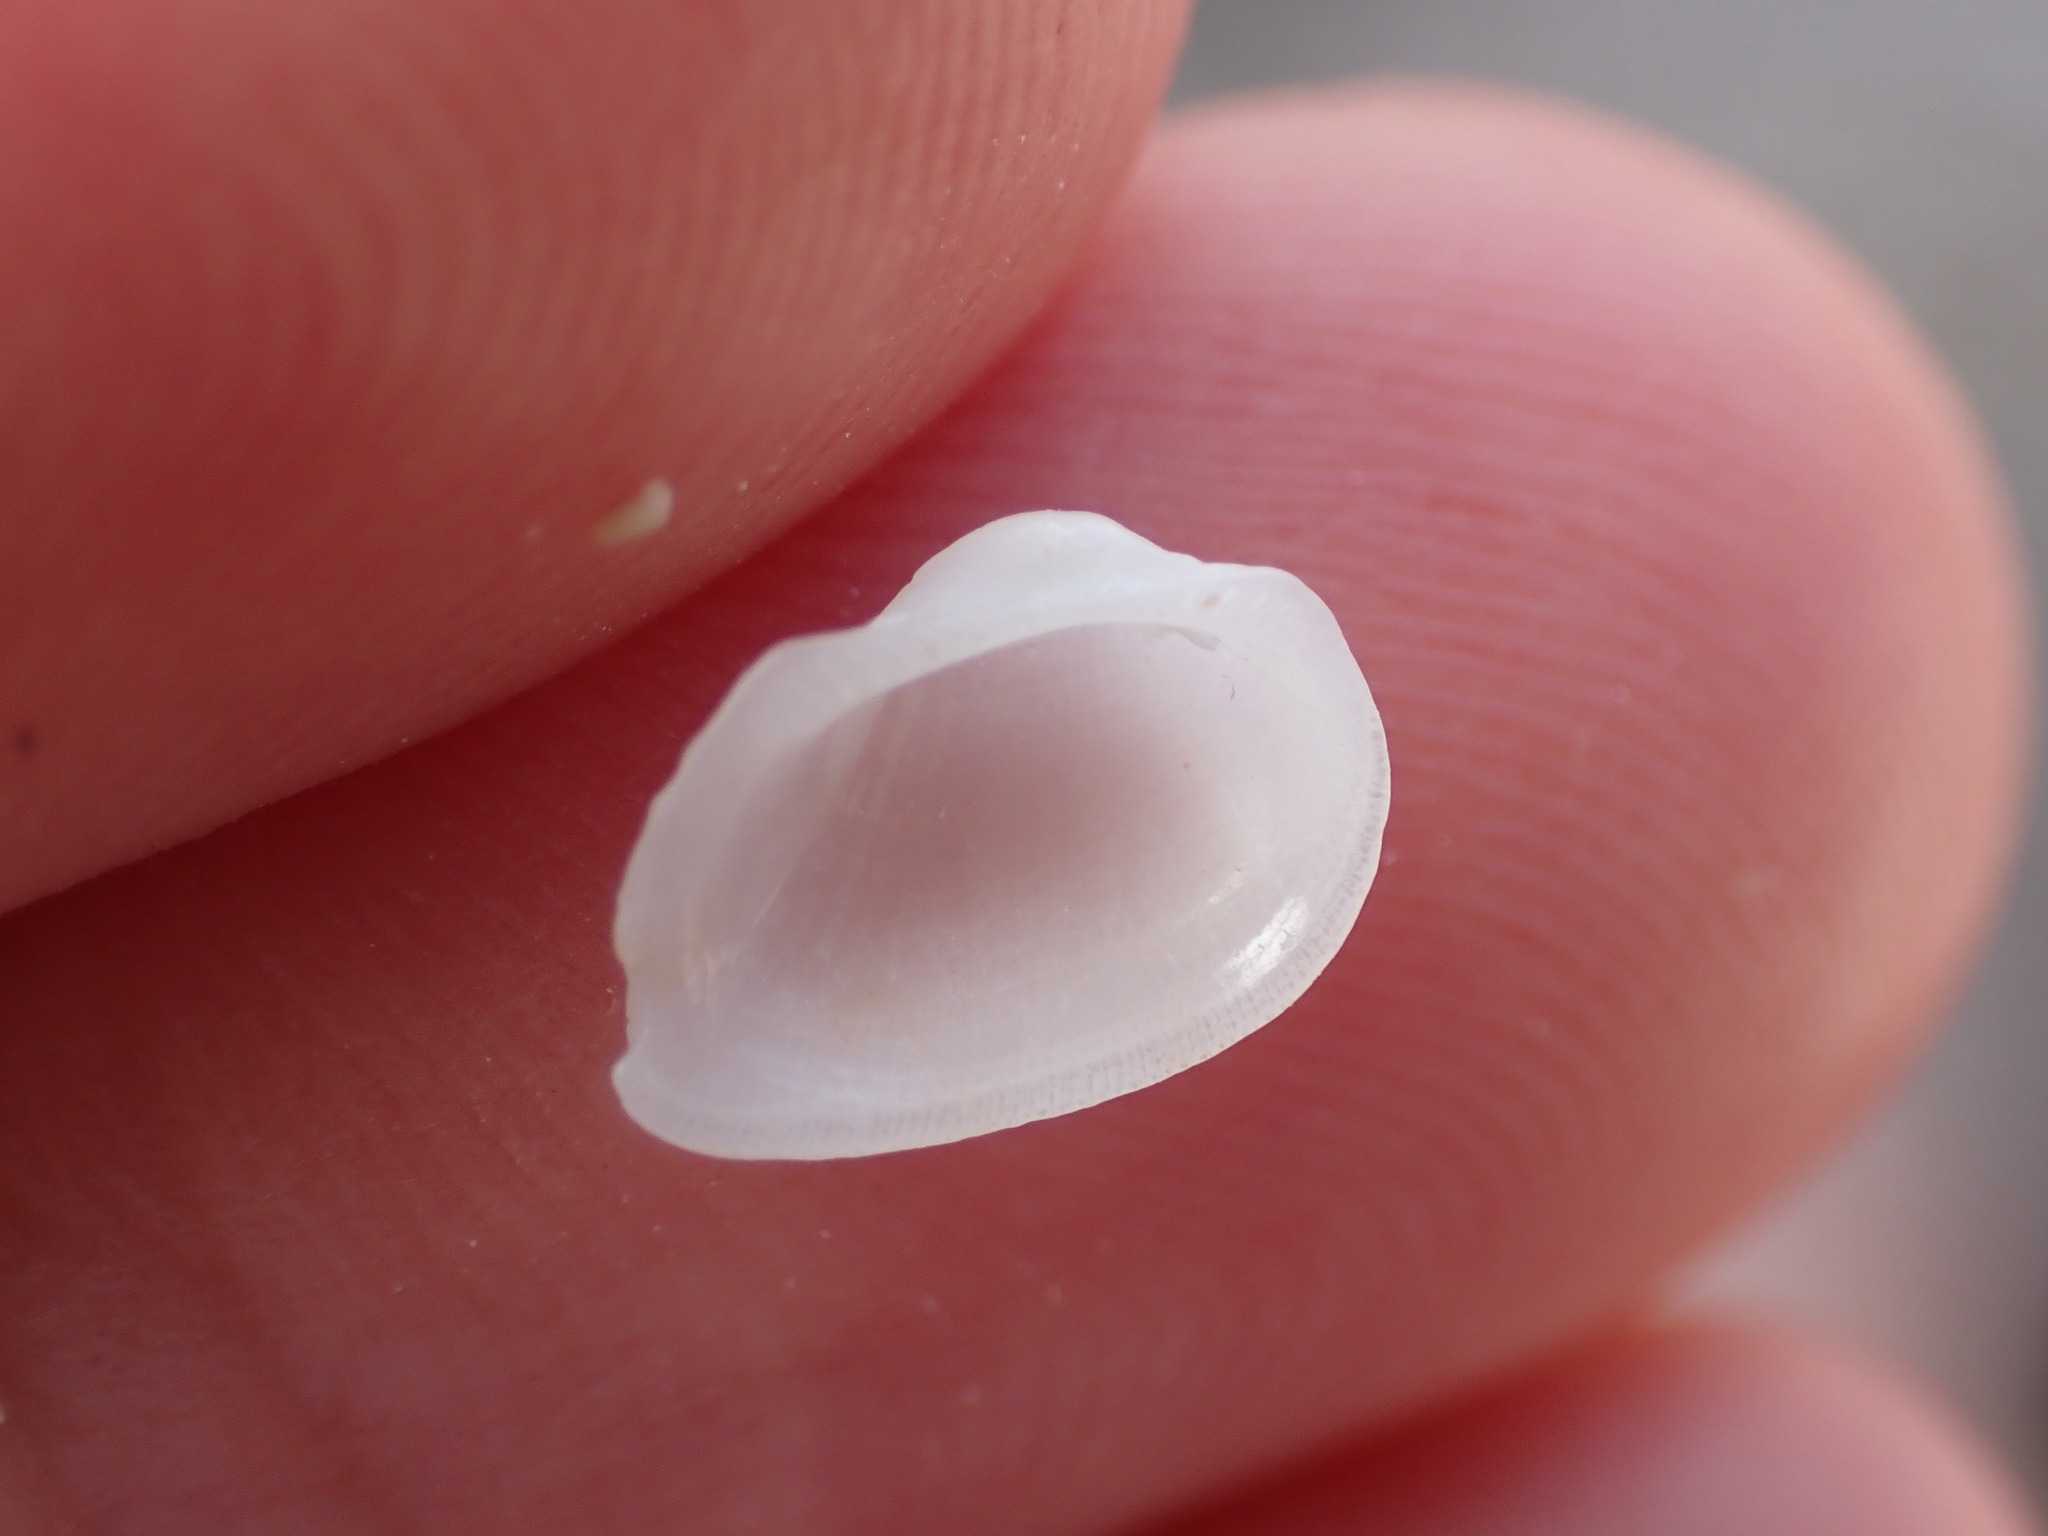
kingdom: Animalia
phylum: Mollusca
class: Bivalvia
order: Arcida
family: Noetiidae
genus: Striarca
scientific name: Striarca lactea
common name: Milky-white ark
